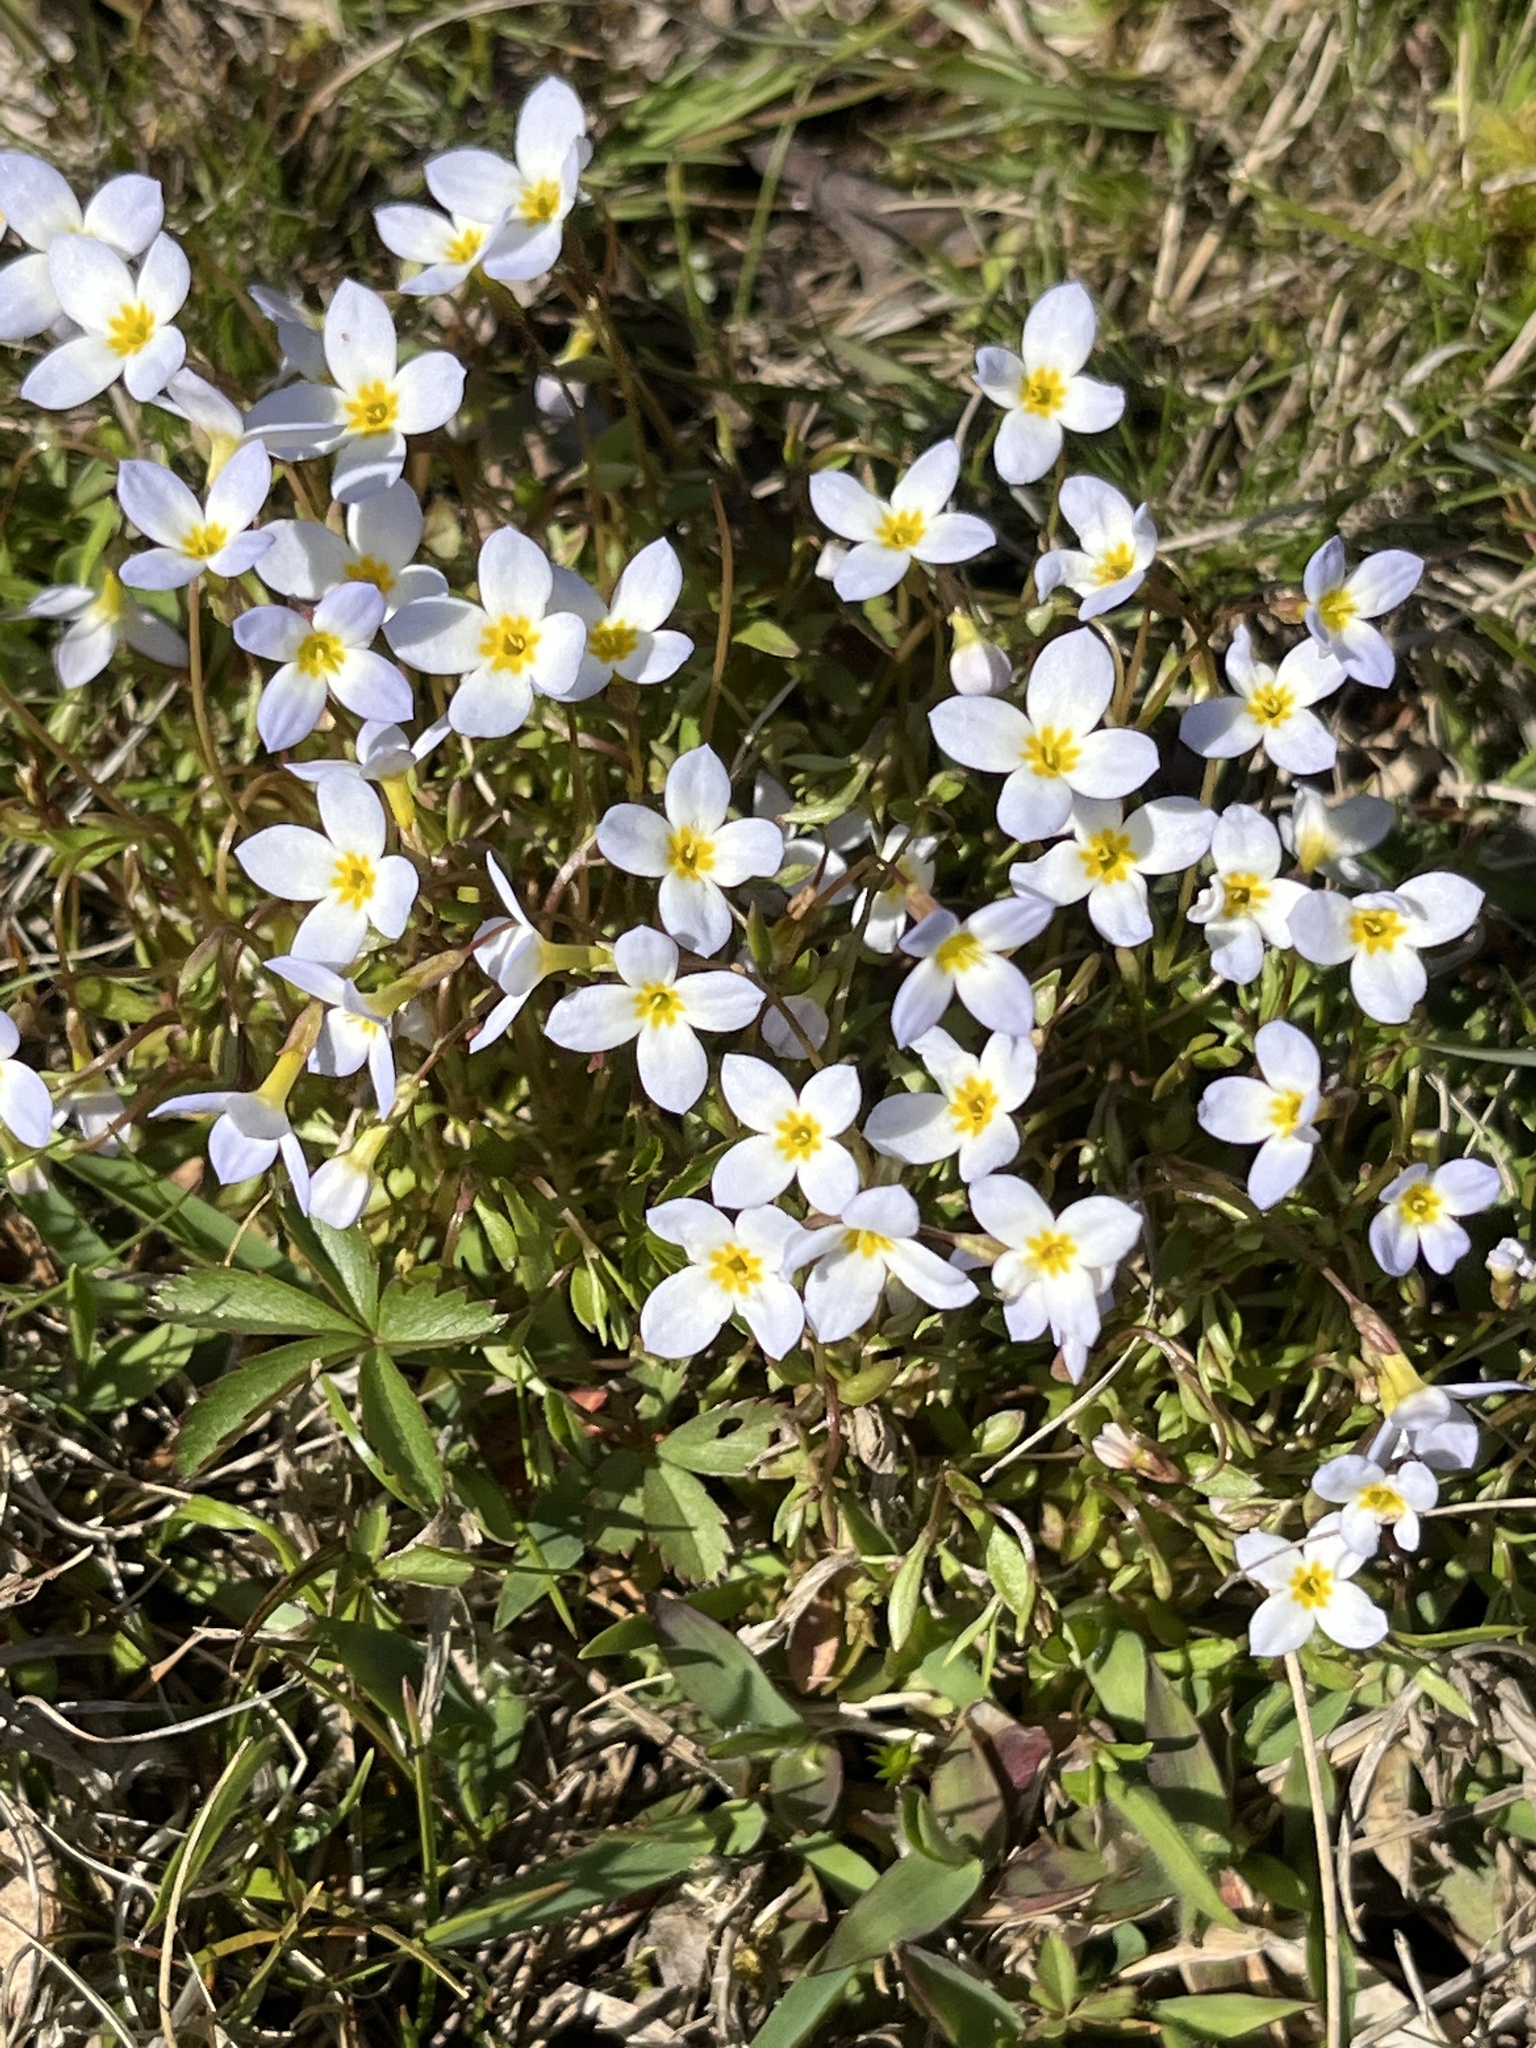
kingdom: Plantae
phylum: Tracheophyta
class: Magnoliopsida
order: Gentianales
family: Rubiaceae
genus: Houstonia
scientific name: Houstonia caerulea
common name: Bluets
